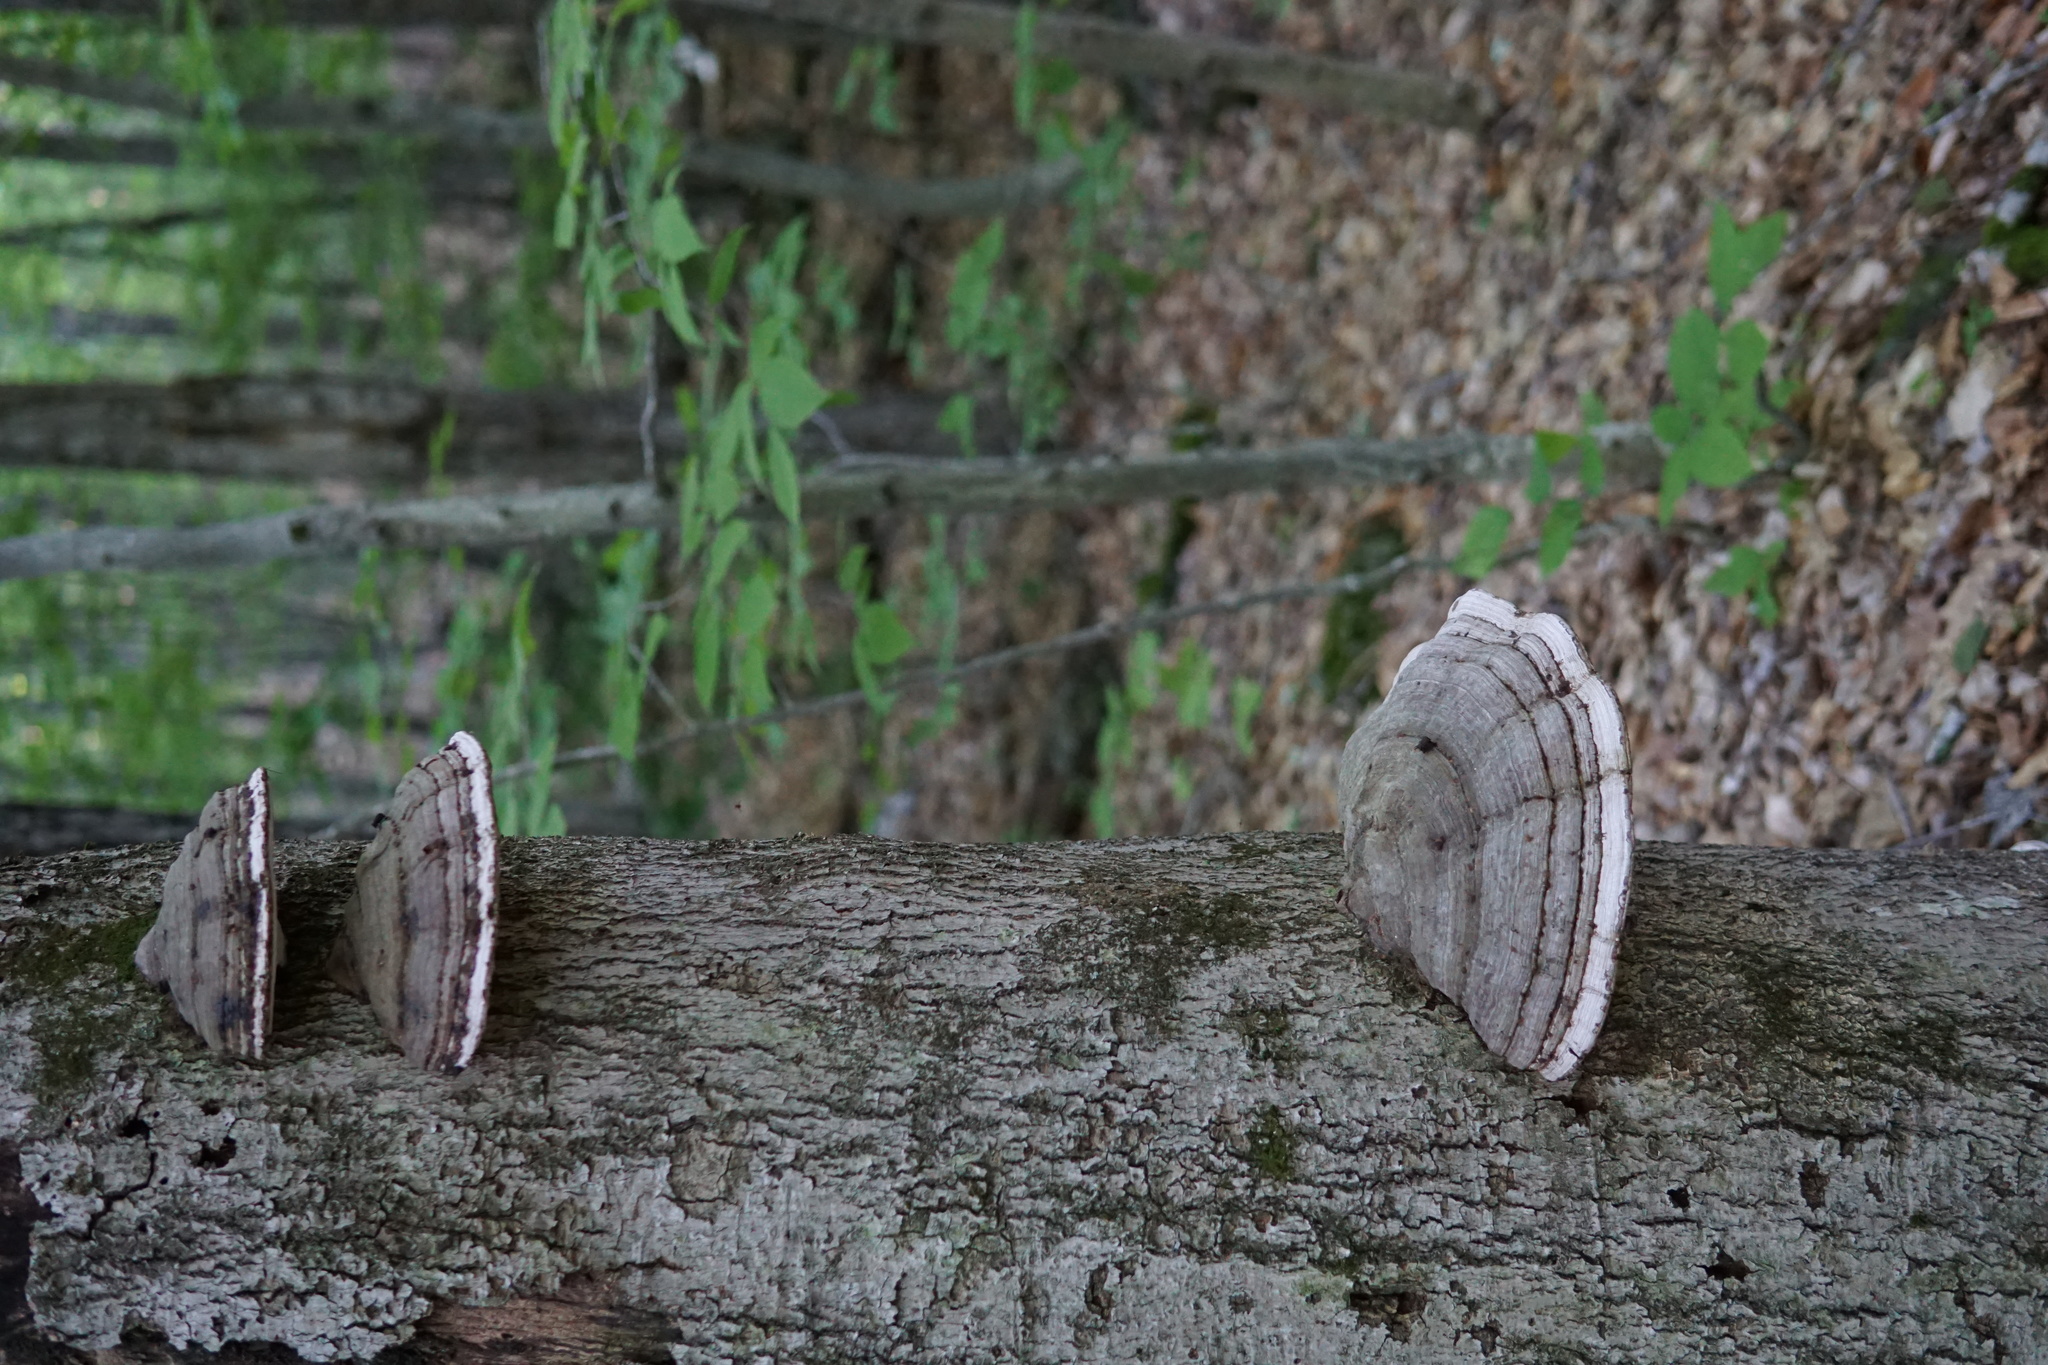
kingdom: Fungi
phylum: Basidiomycota
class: Agaricomycetes
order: Polyporales
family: Polyporaceae
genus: Ganoderma
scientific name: Ganoderma applanatum
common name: Artist's bracket
